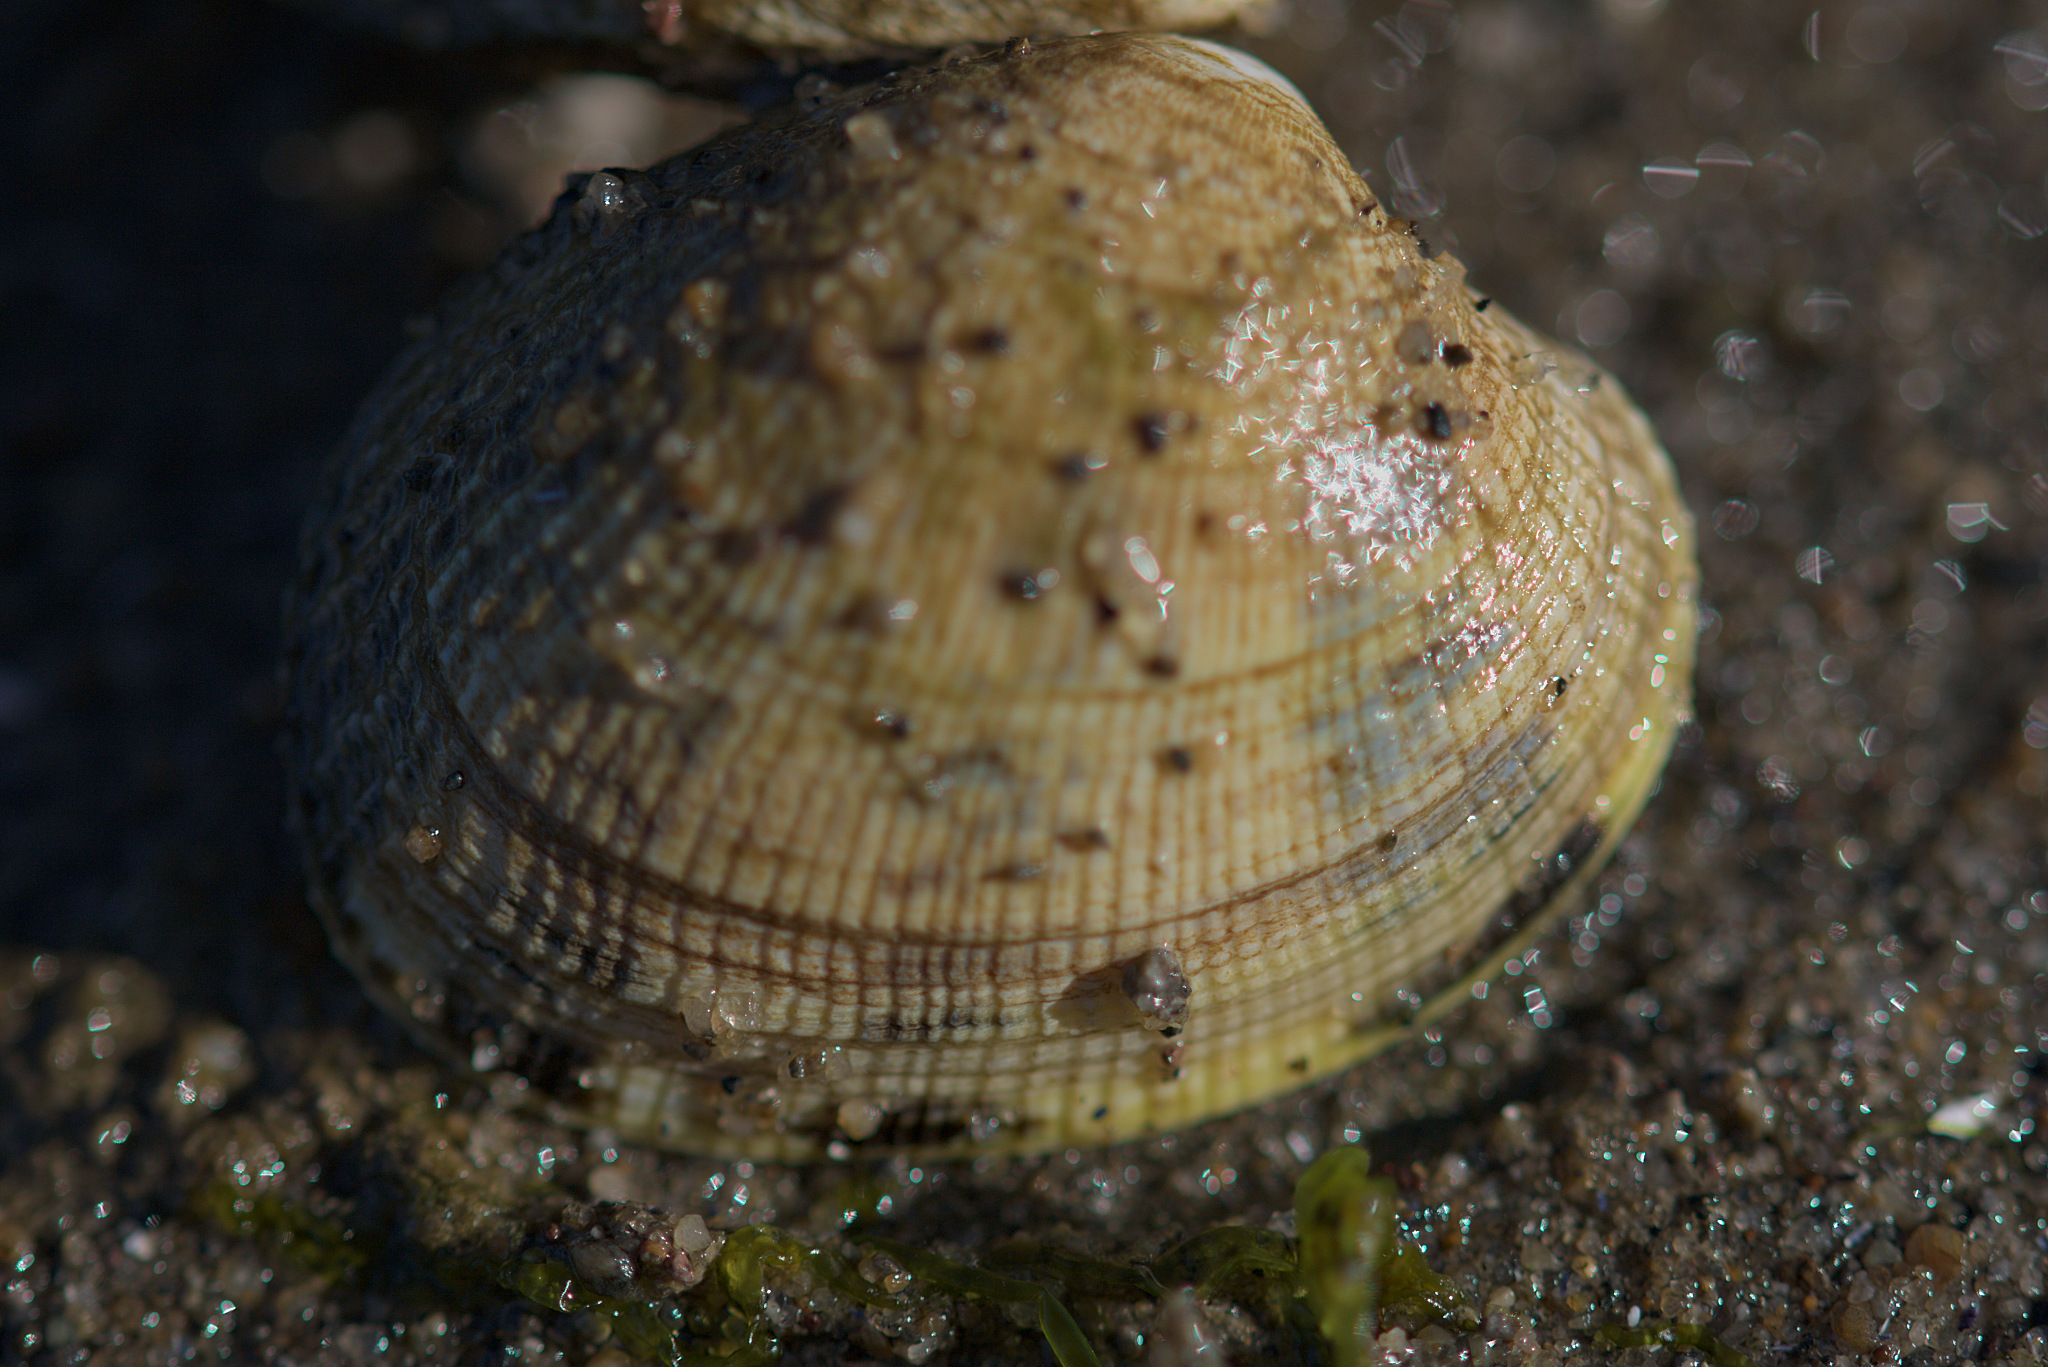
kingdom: Animalia
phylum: Mollusca
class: Bivalvia
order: Venerida
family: Veneridae
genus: Ruditapes
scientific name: Ruditapes philippinarum
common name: Manila clam
